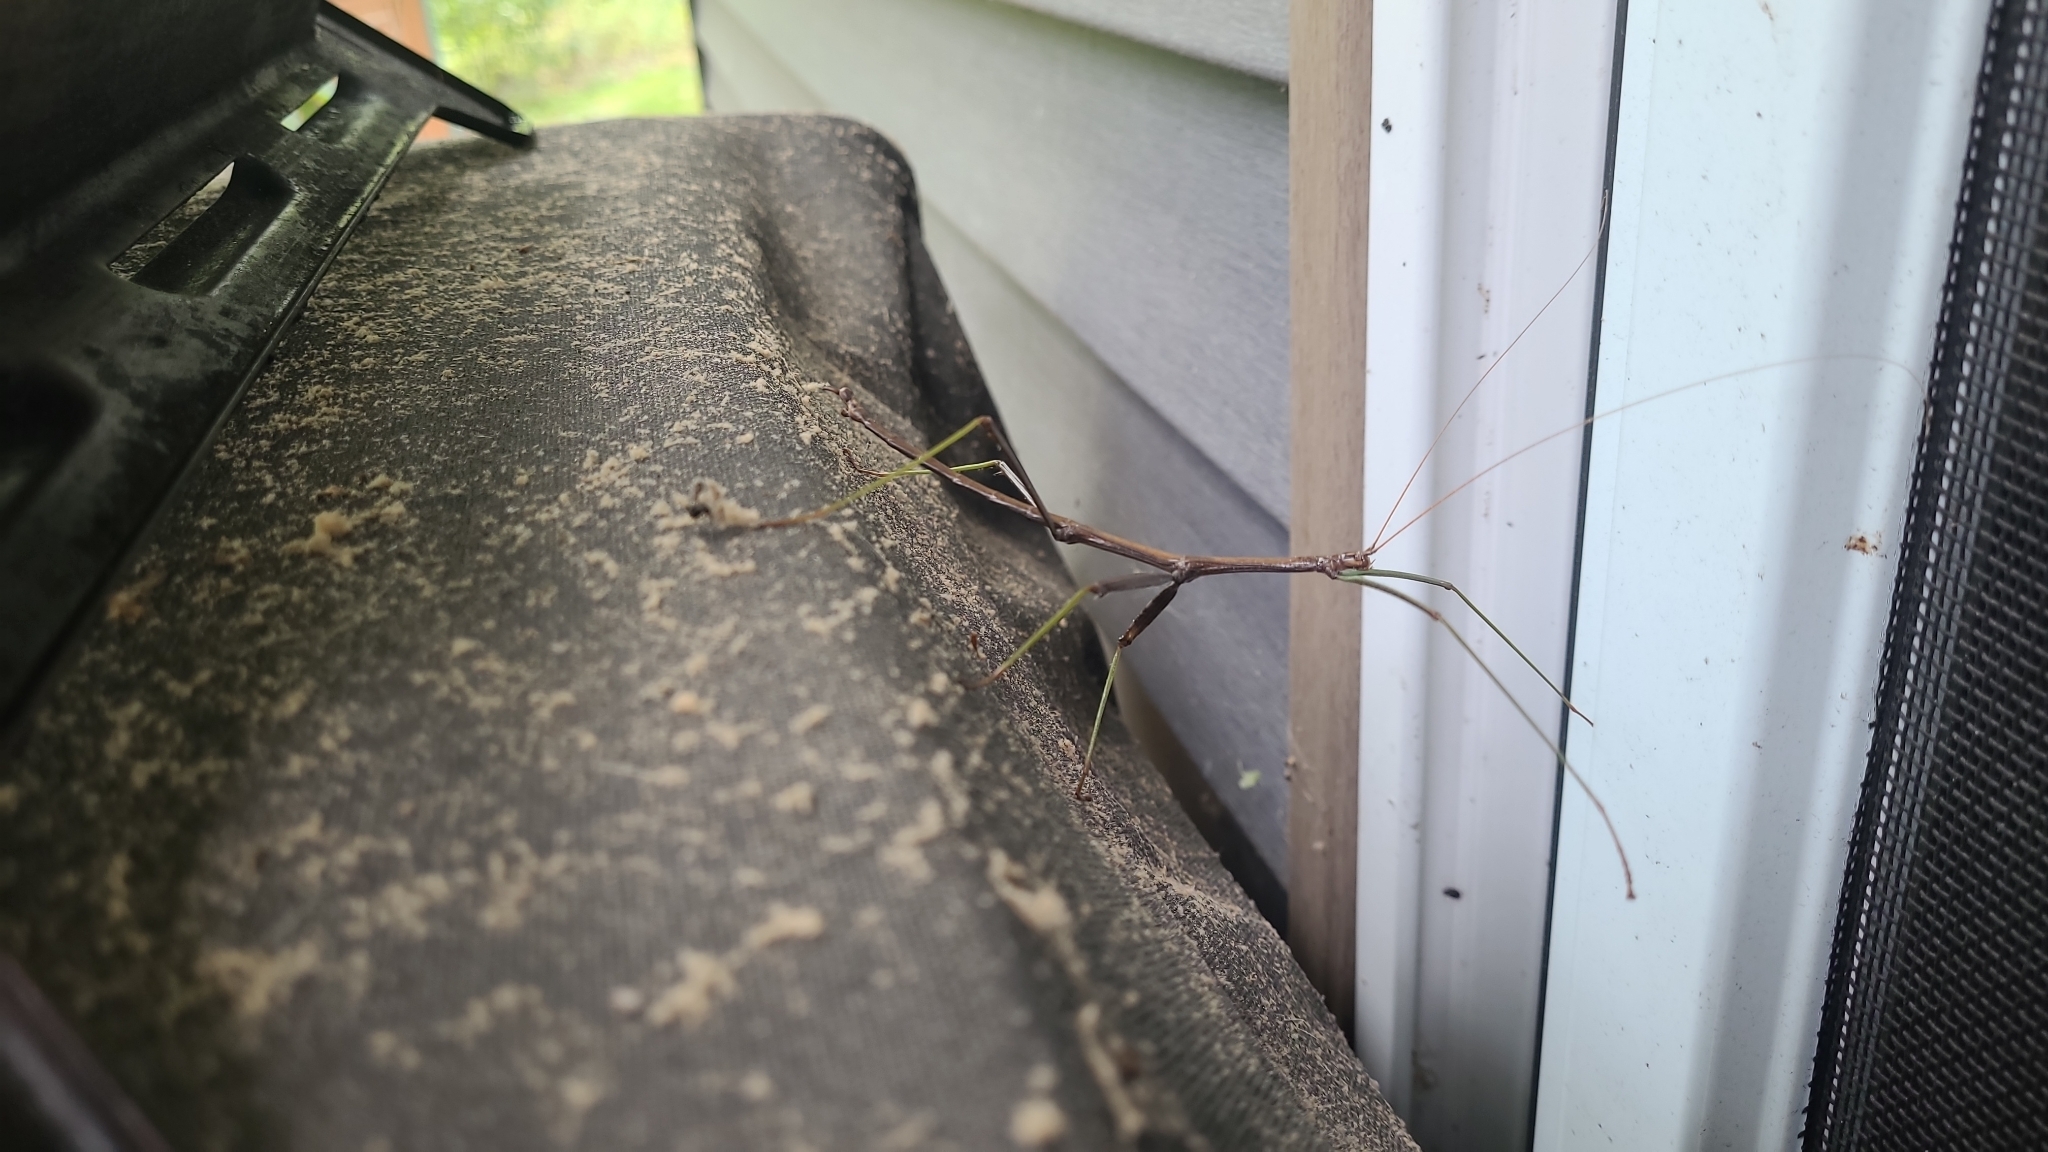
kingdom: Animalia
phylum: Arthropoda
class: Insecta
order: Phasmida
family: Diapheromeridae
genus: Diapheromera
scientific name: Diapheromera femorata
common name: Common american walkingstick
